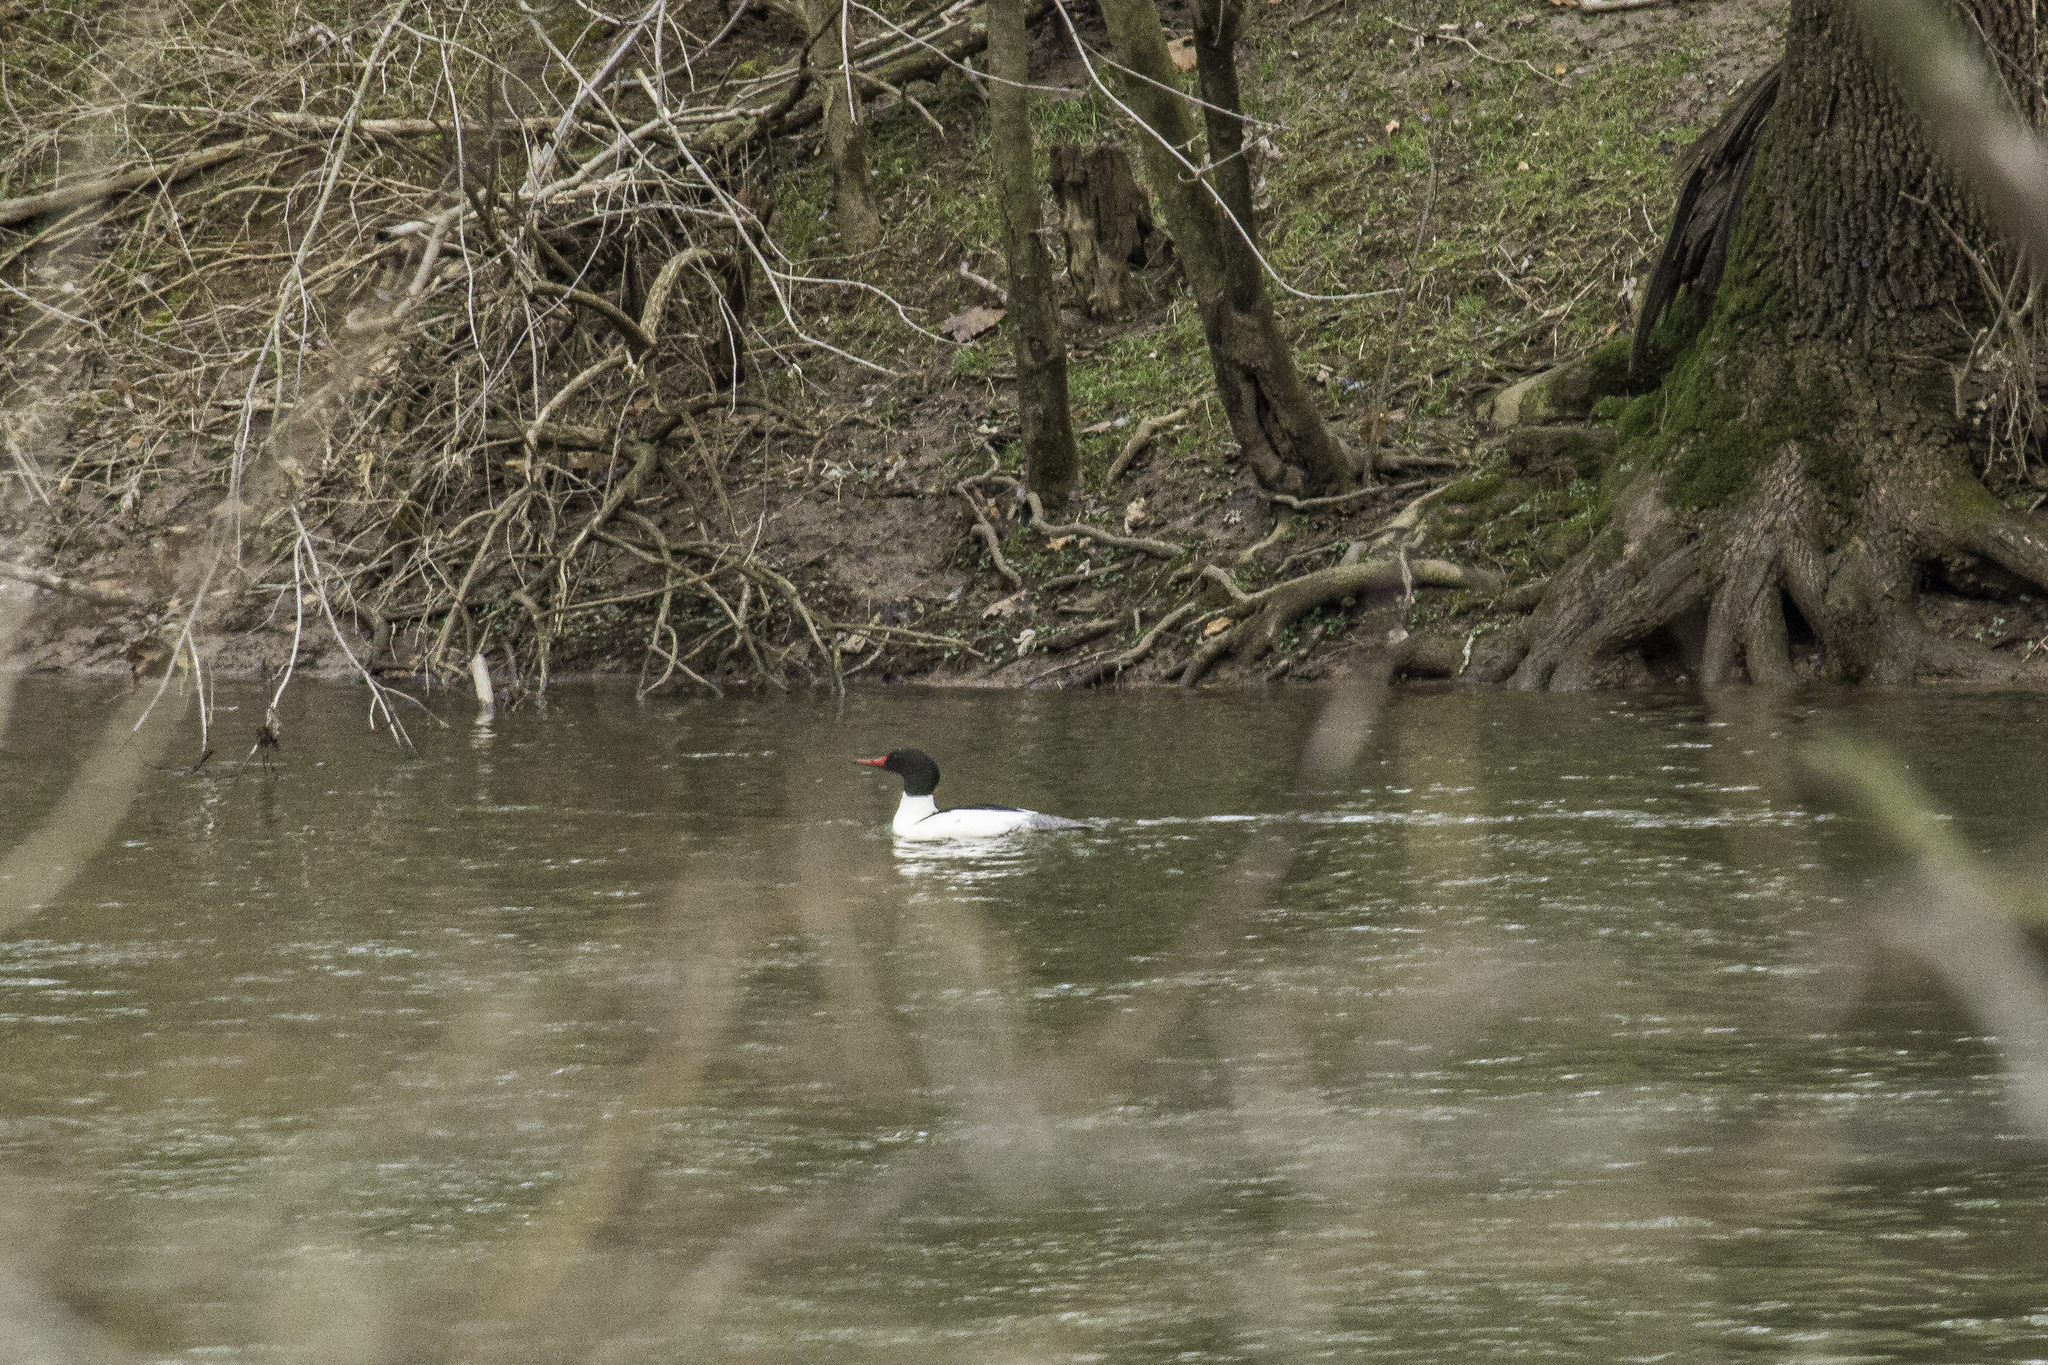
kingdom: Animalia
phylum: Chordata
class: Aves
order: Anseriformes
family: Anatidae
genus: Mergus
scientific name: Mergus merganser
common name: Common merganser
